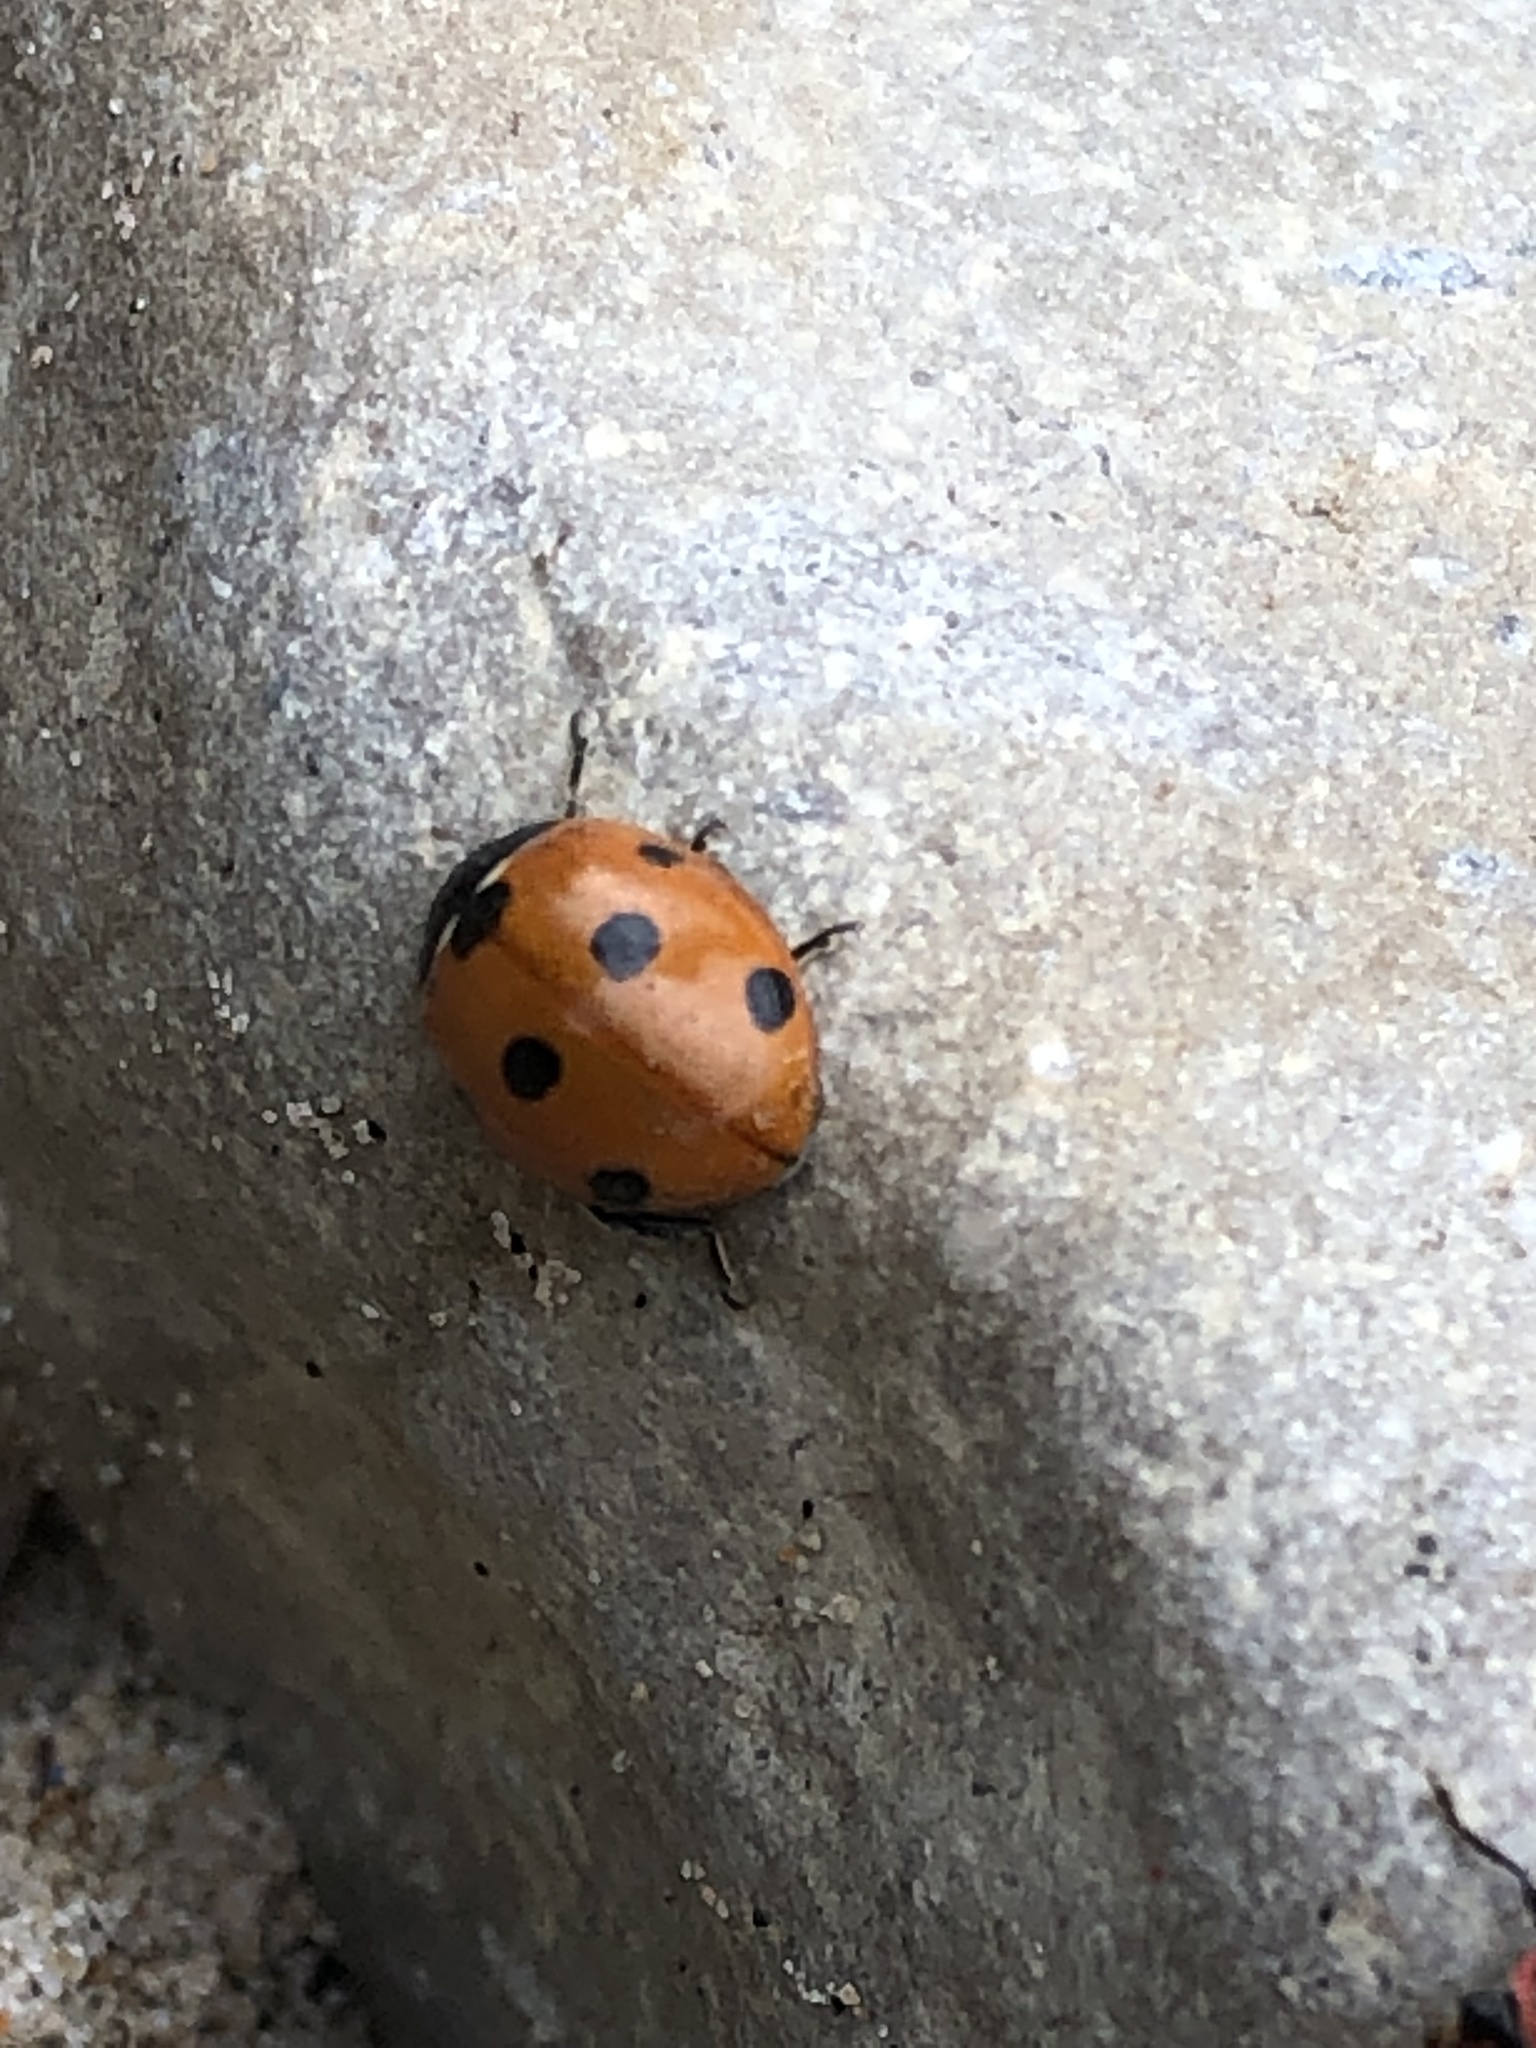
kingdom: Animalia
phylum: Arthropoda
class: Insecta
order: Coleoptera
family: Coccinellidae
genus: Coccinella
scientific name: Coccinella septempunctata
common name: Sevenspotted lady beetle
